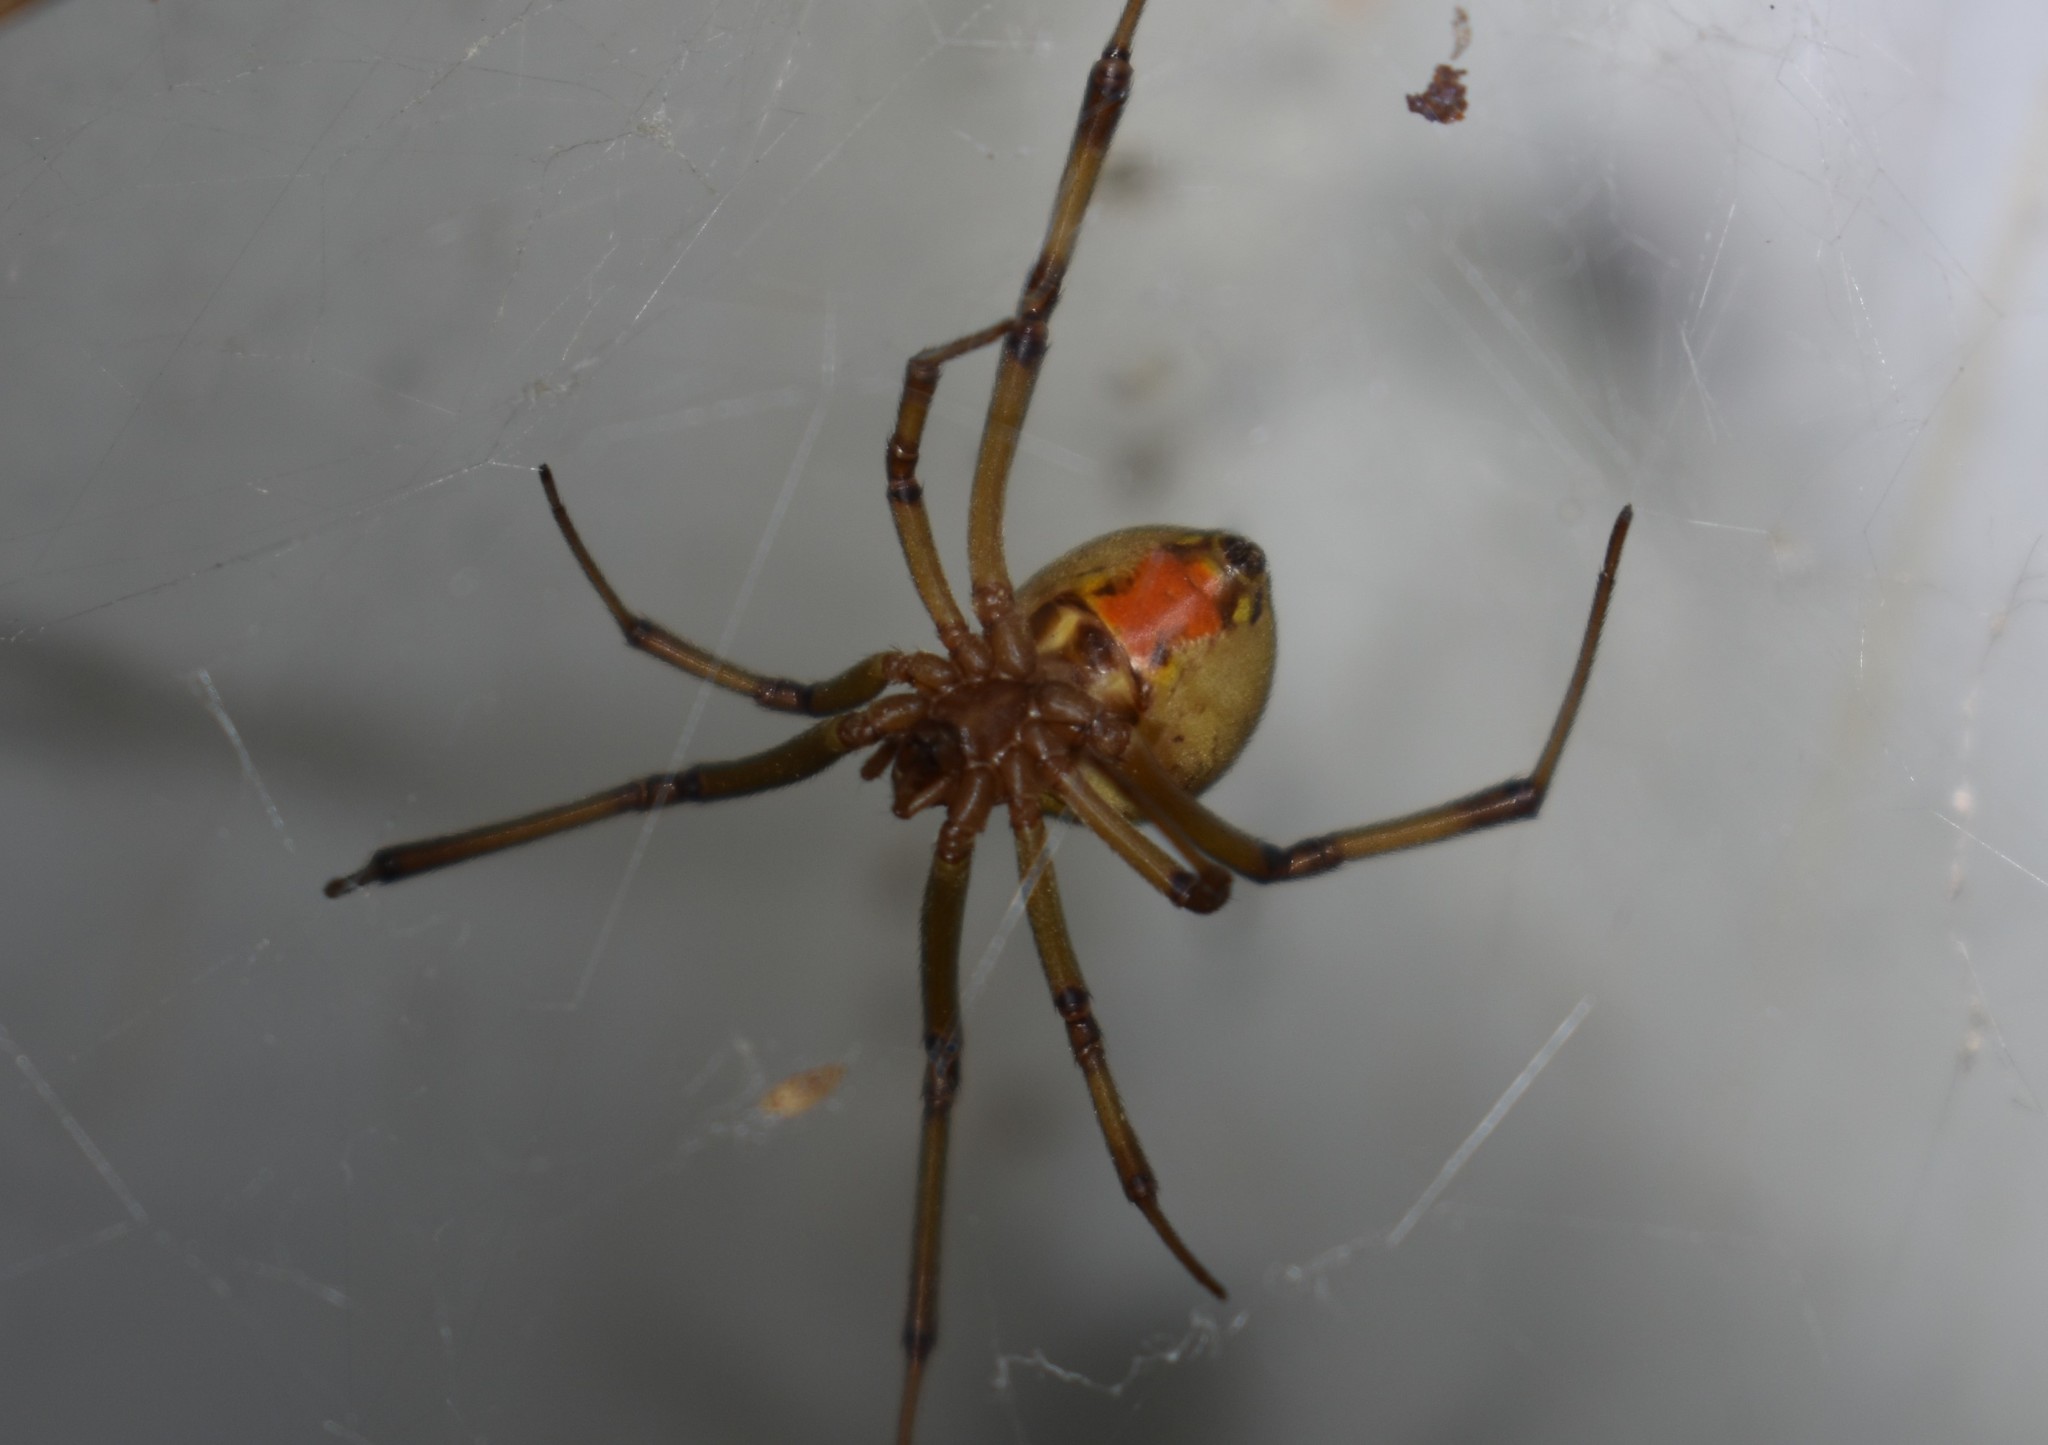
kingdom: Animalia
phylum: Arthropoda
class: Arachnida
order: Araneae
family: Theridiidae
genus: Latrodectus
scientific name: Latrodectus geometricus
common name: Brown widow spider
